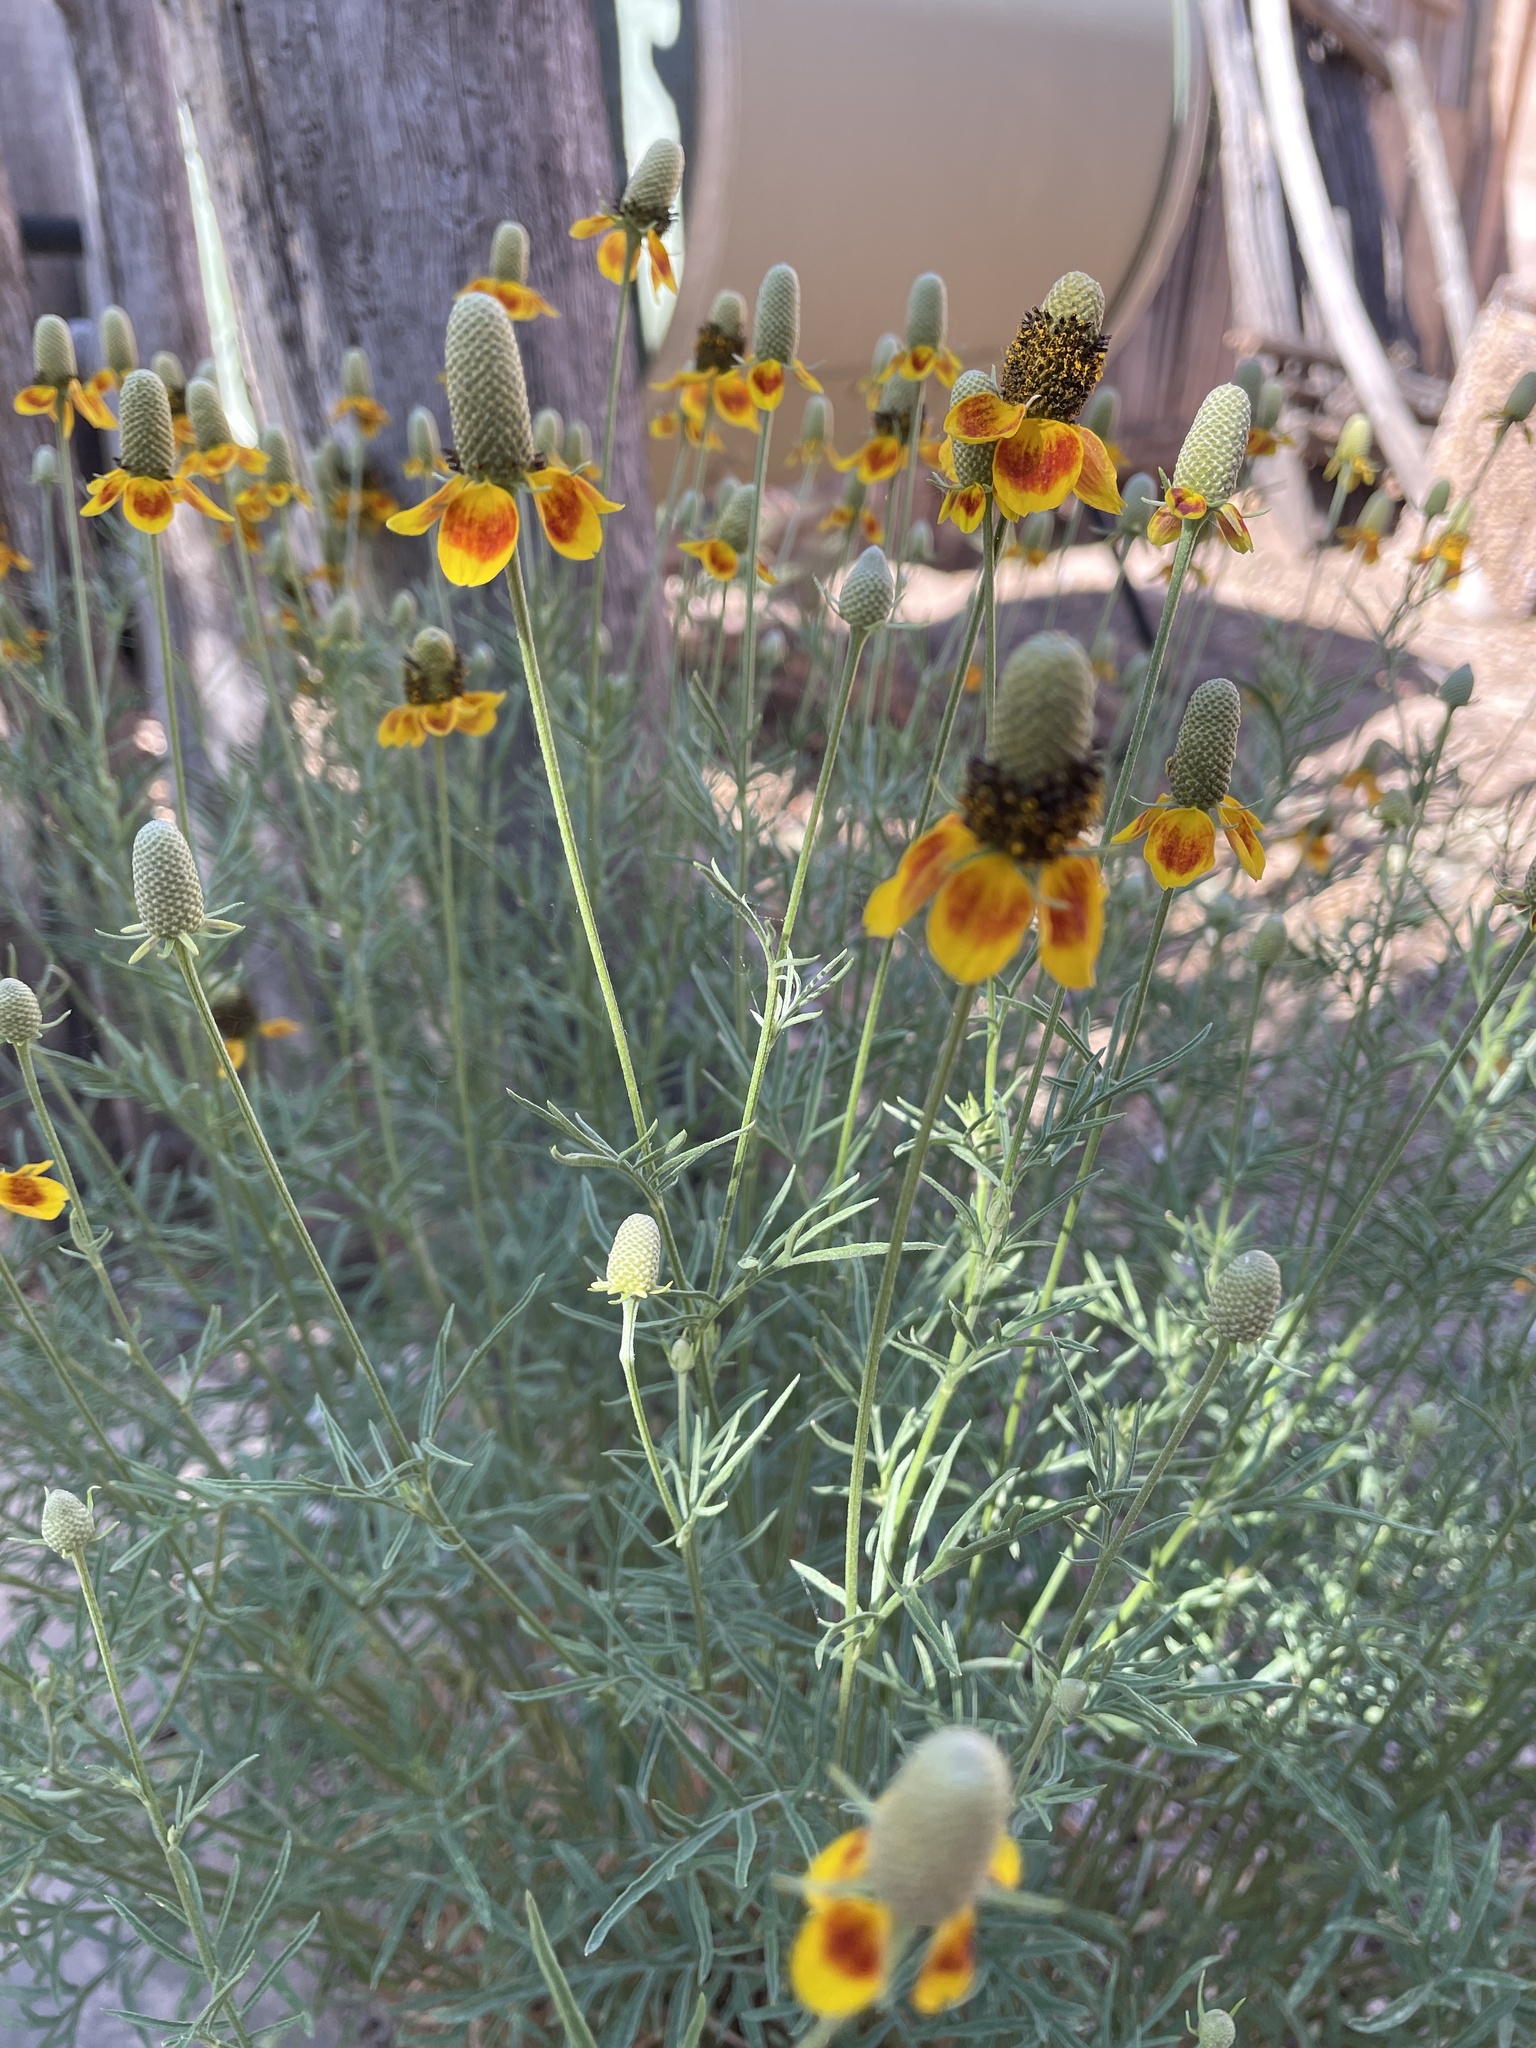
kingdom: Plantae
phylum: Tracheophyta
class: Magnoliopsida
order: Asterales
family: Asteraceae
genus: Ratibida
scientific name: Ratibida columnifera
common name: Prairie coneflower
